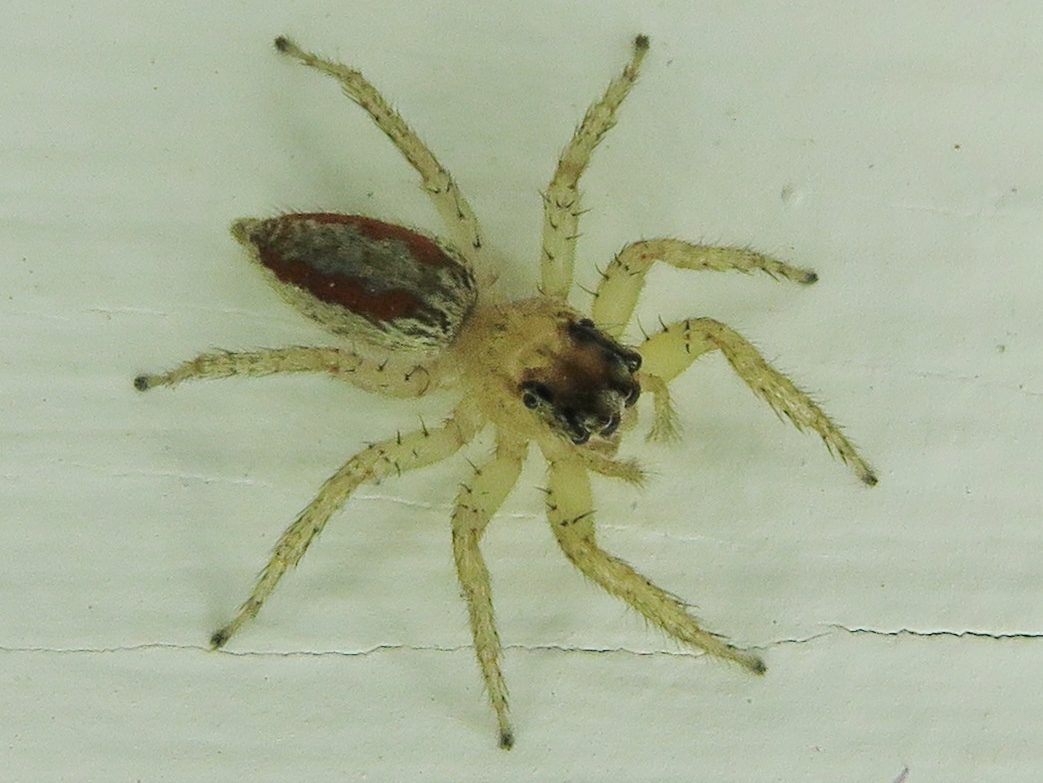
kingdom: Animalia
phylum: Arthropoda
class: Arachnida
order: Araneae
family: Salticidae
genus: Maevia
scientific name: Maevia inclemens
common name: Dimorphic jumper
